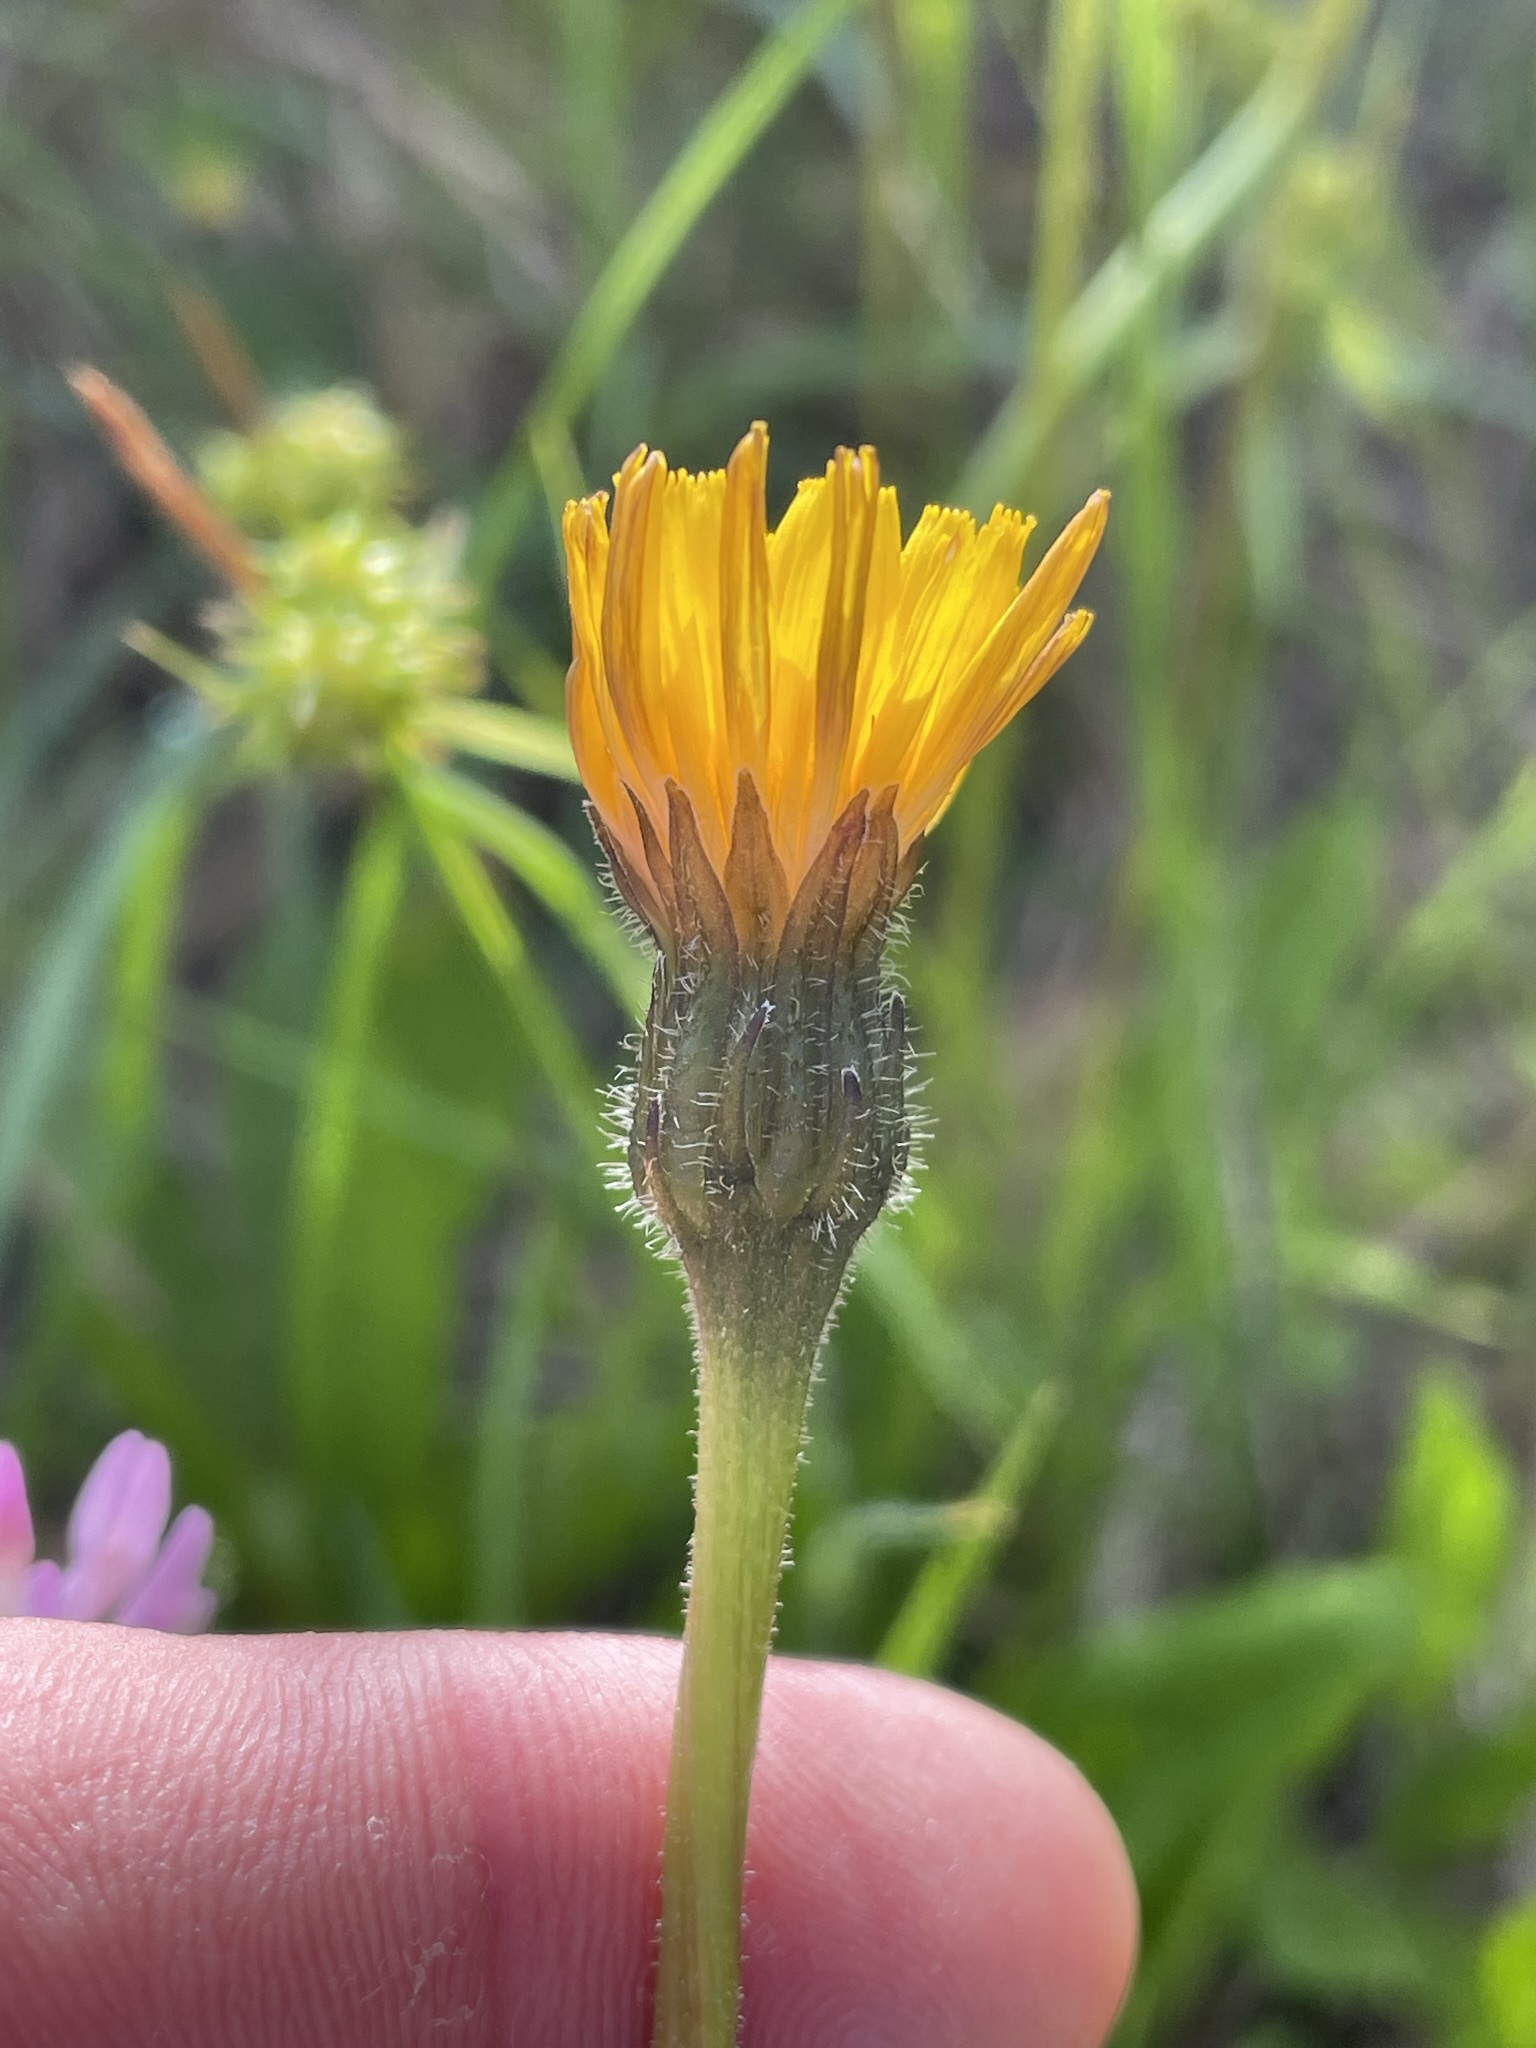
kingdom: Plantae
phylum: Tracheophyta
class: Magnoliopsida
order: Asterales
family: Asteraceae
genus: Leontodon
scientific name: Leontodon hispidus
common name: Rough hawkbit
